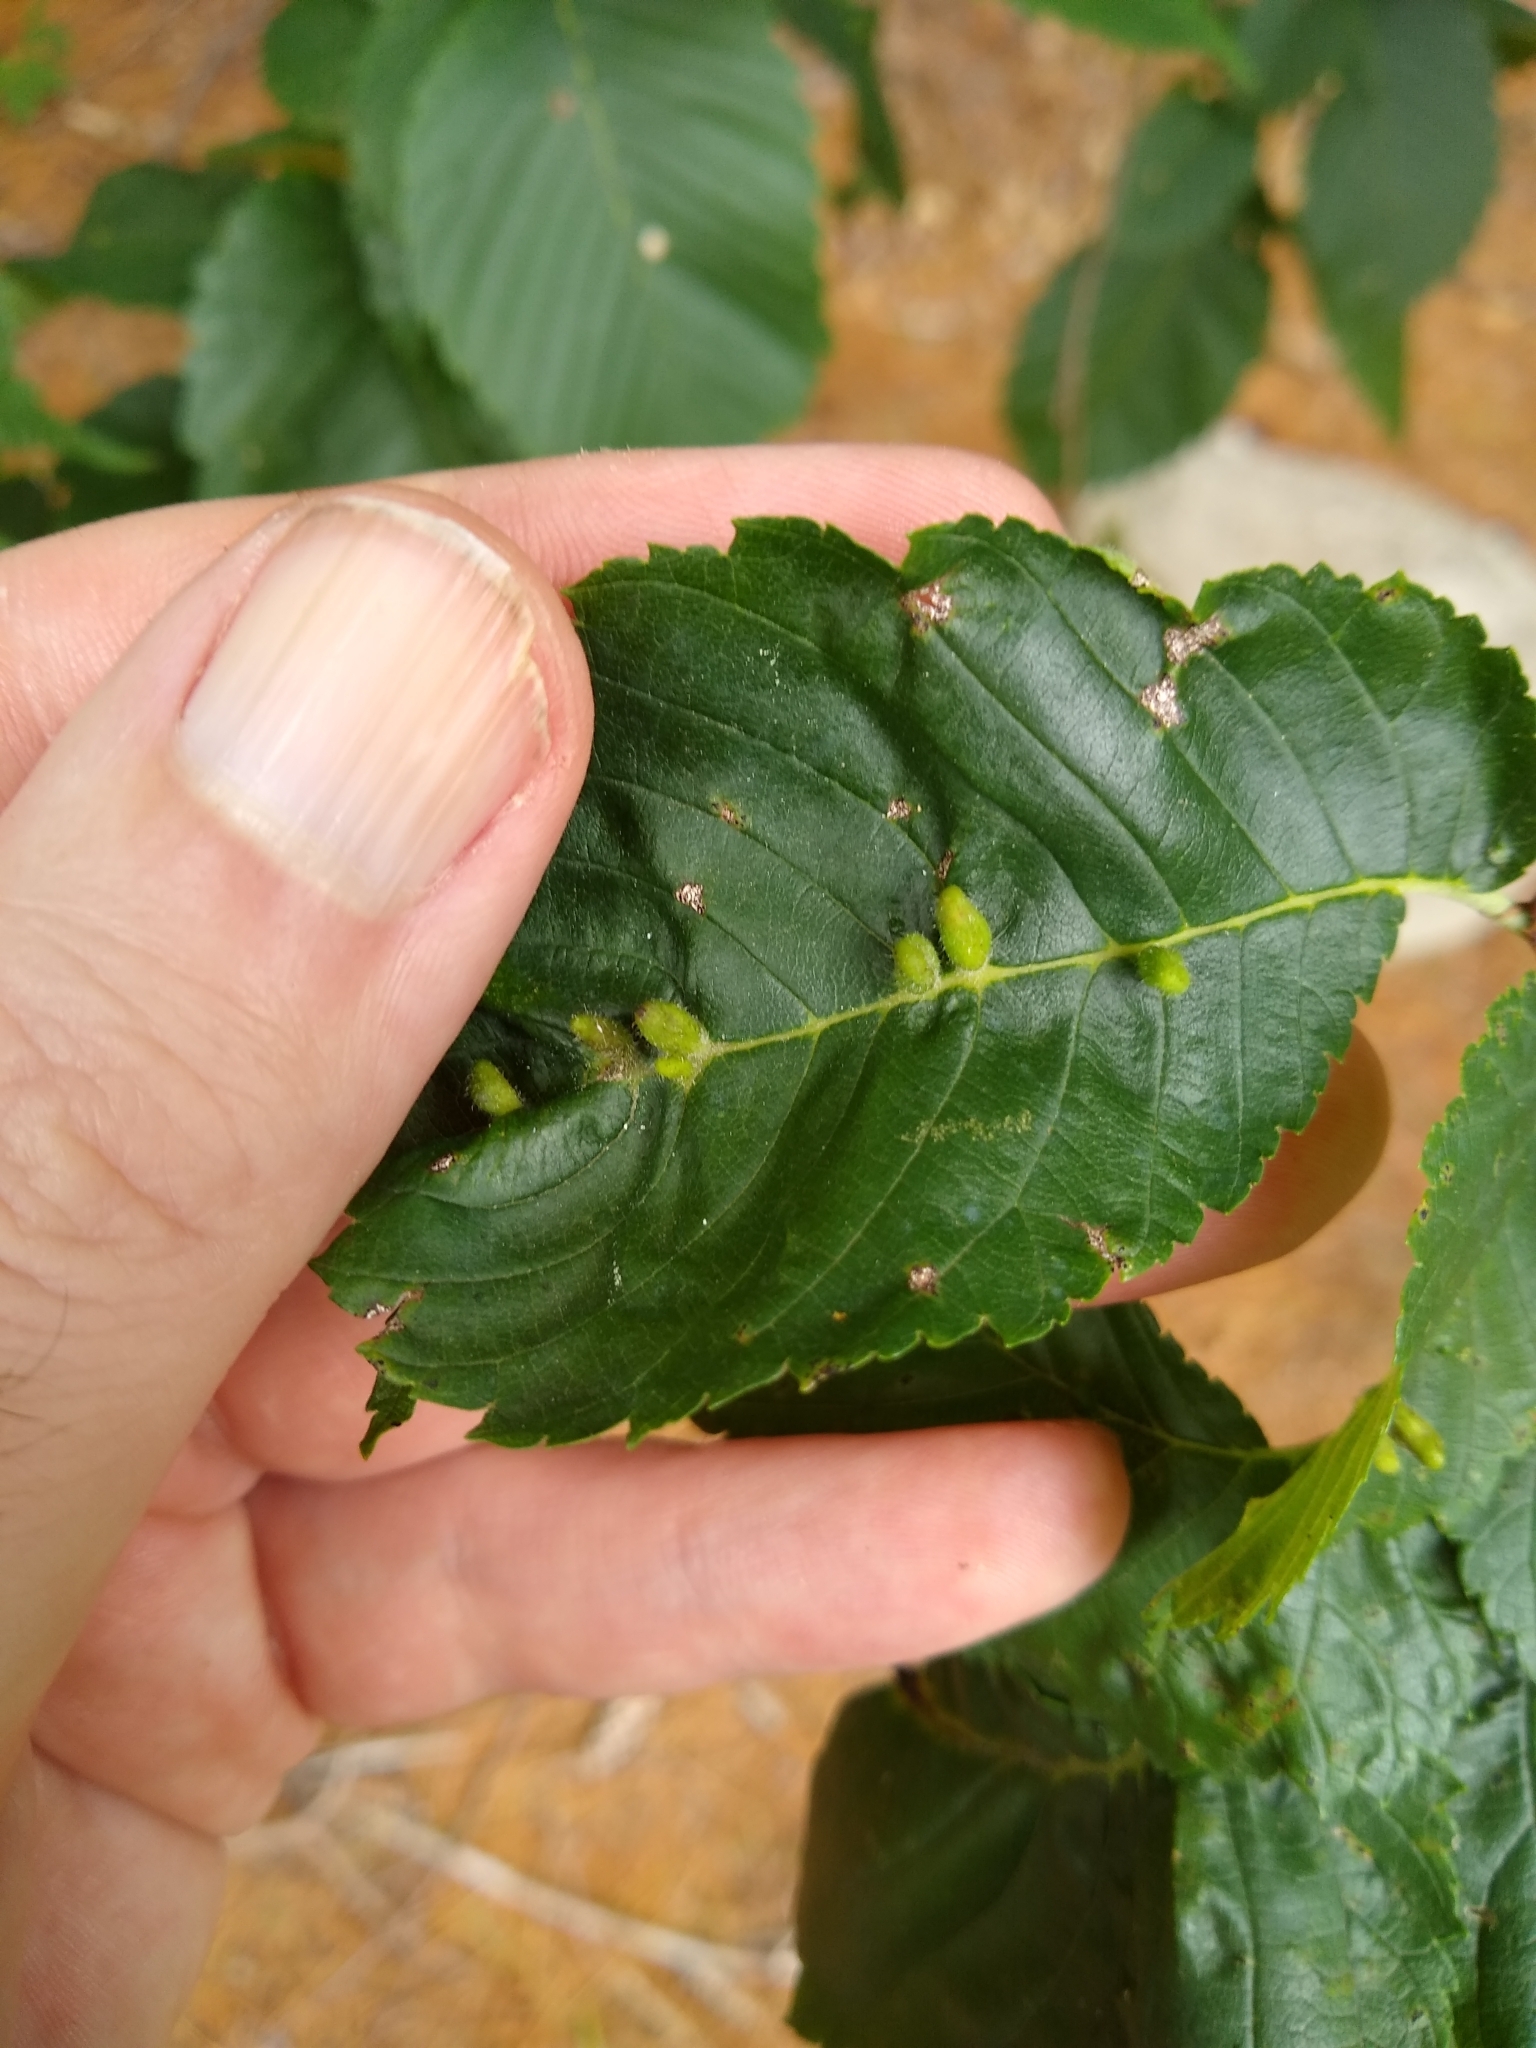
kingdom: Animalia
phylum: Arthropoda
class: Arachnida
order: Trombidiformes
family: Eriophyidae
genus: Aceria
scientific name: Aceria
